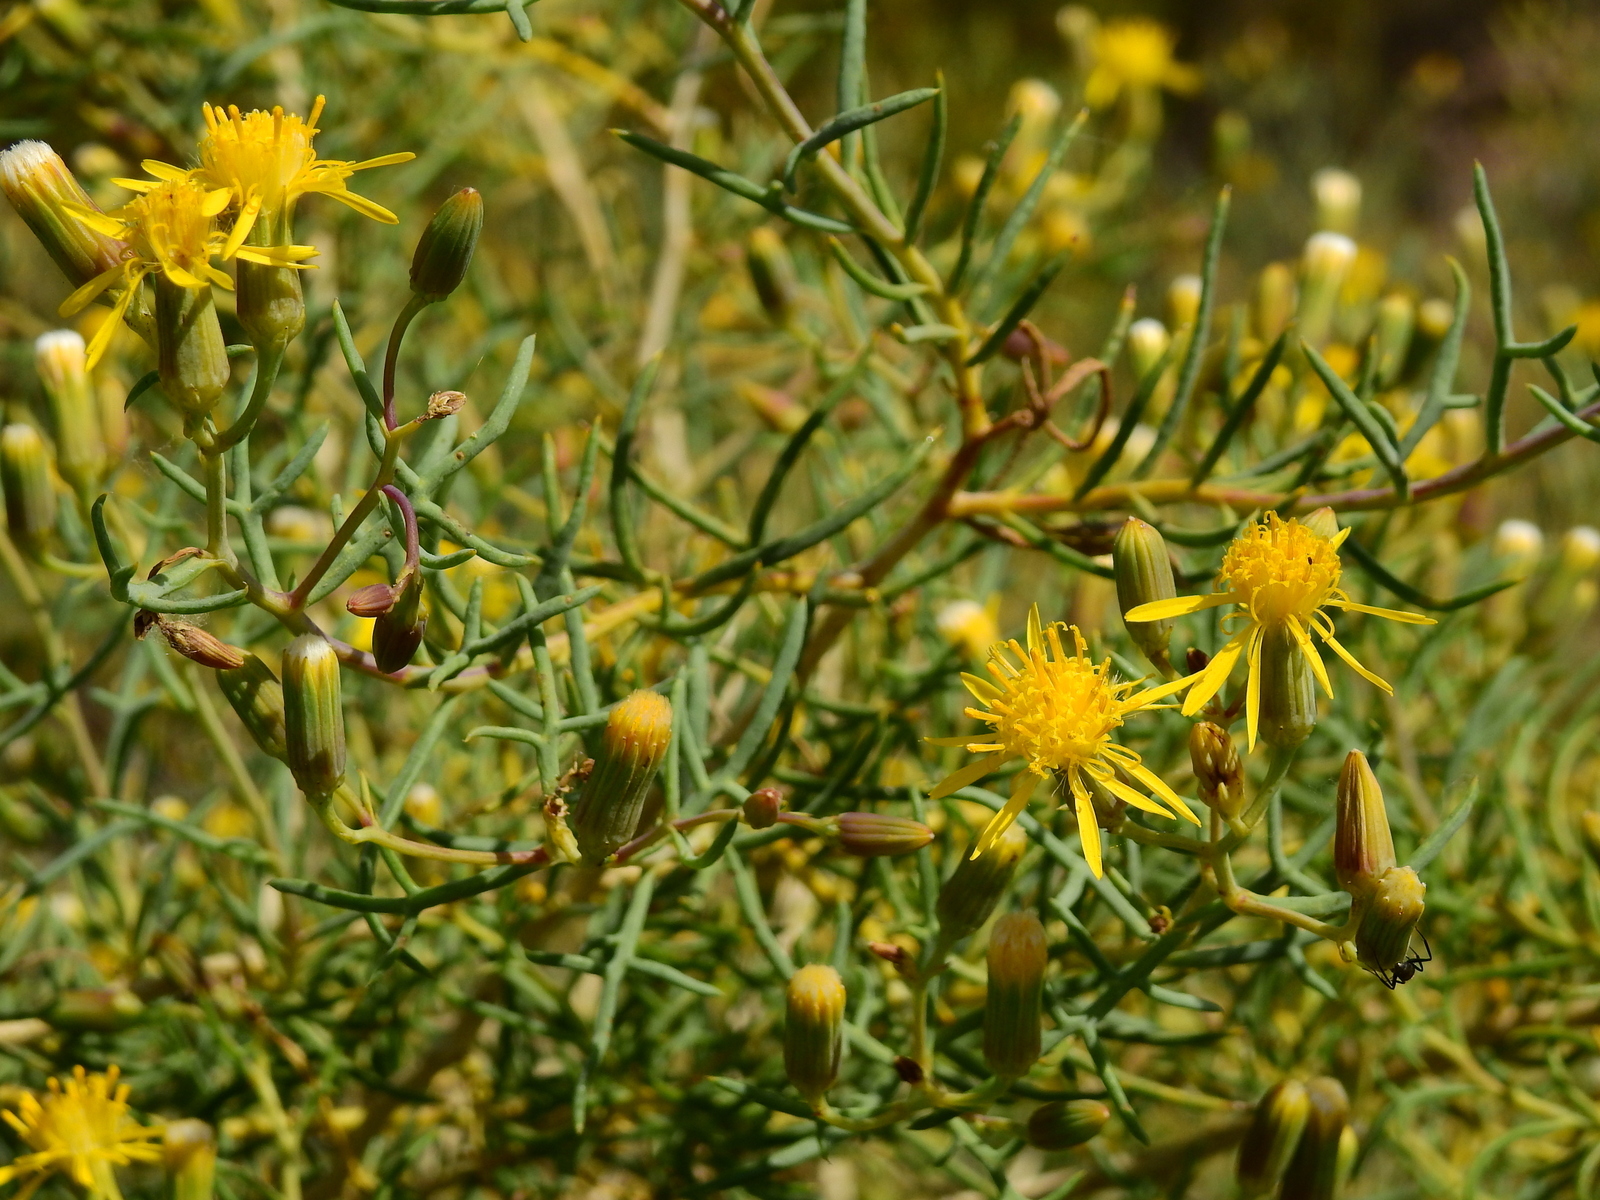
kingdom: Plantae
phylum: Tracheophyta
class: Magnoliopsida
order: Asterales
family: Asteraceae
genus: Senecio
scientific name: Senecio subulatus
